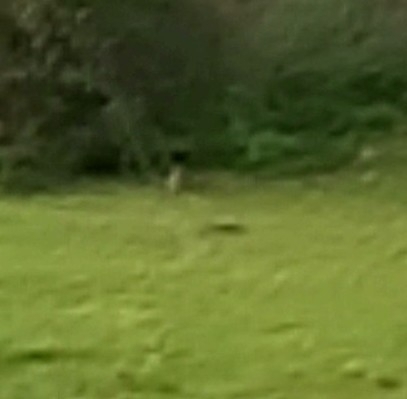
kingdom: Animalia
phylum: Chordata
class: Mammalia
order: Lagomorpha
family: Leporidae
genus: Oryctolagus
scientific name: Oryctolagus cuniculus
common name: European rabbit
